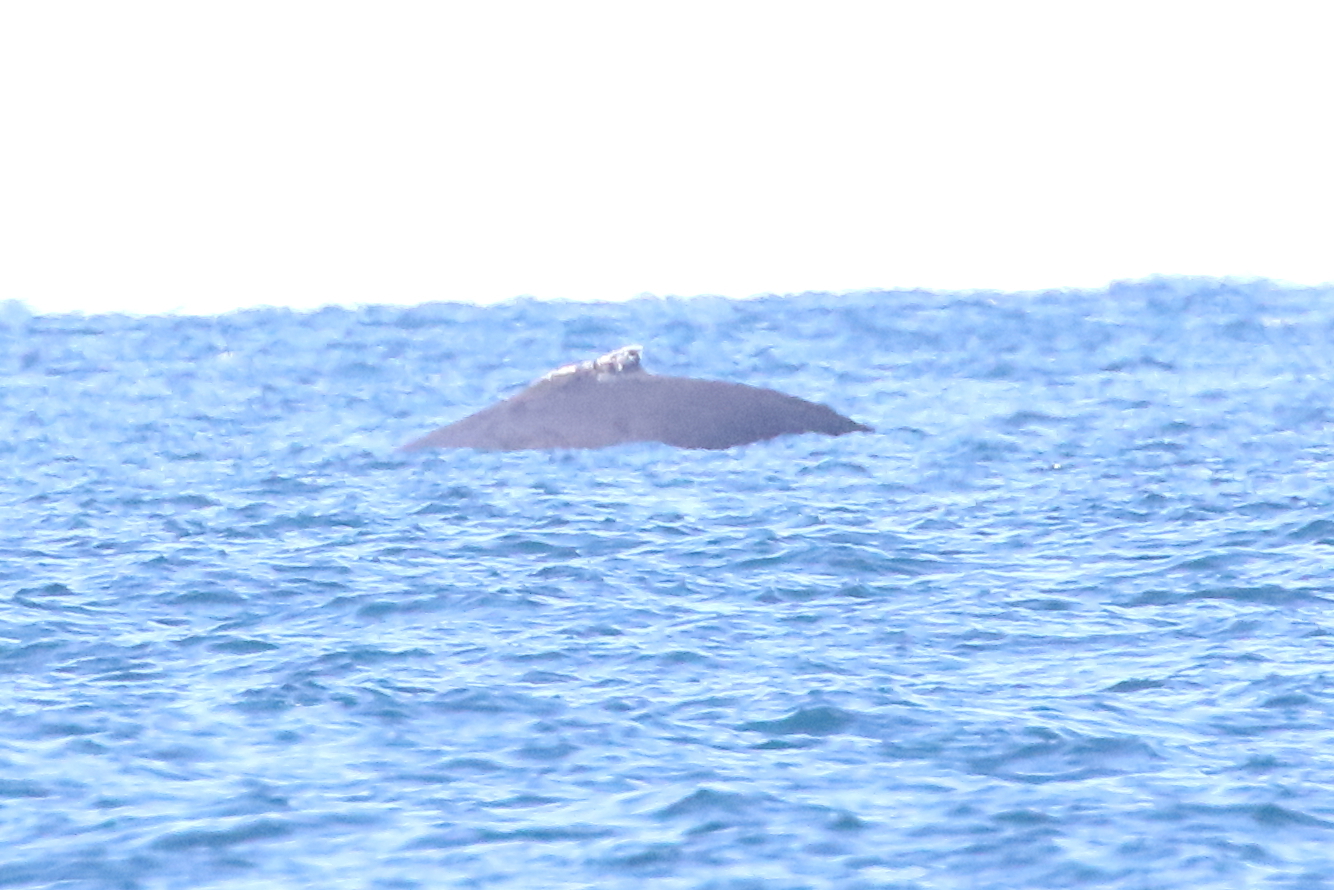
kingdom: Animalia
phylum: Chordata
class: Mammalia
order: Cetacea
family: Balaenopteridae
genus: Megaptera
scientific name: Megaptera novaeangliae
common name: Humpback whale
